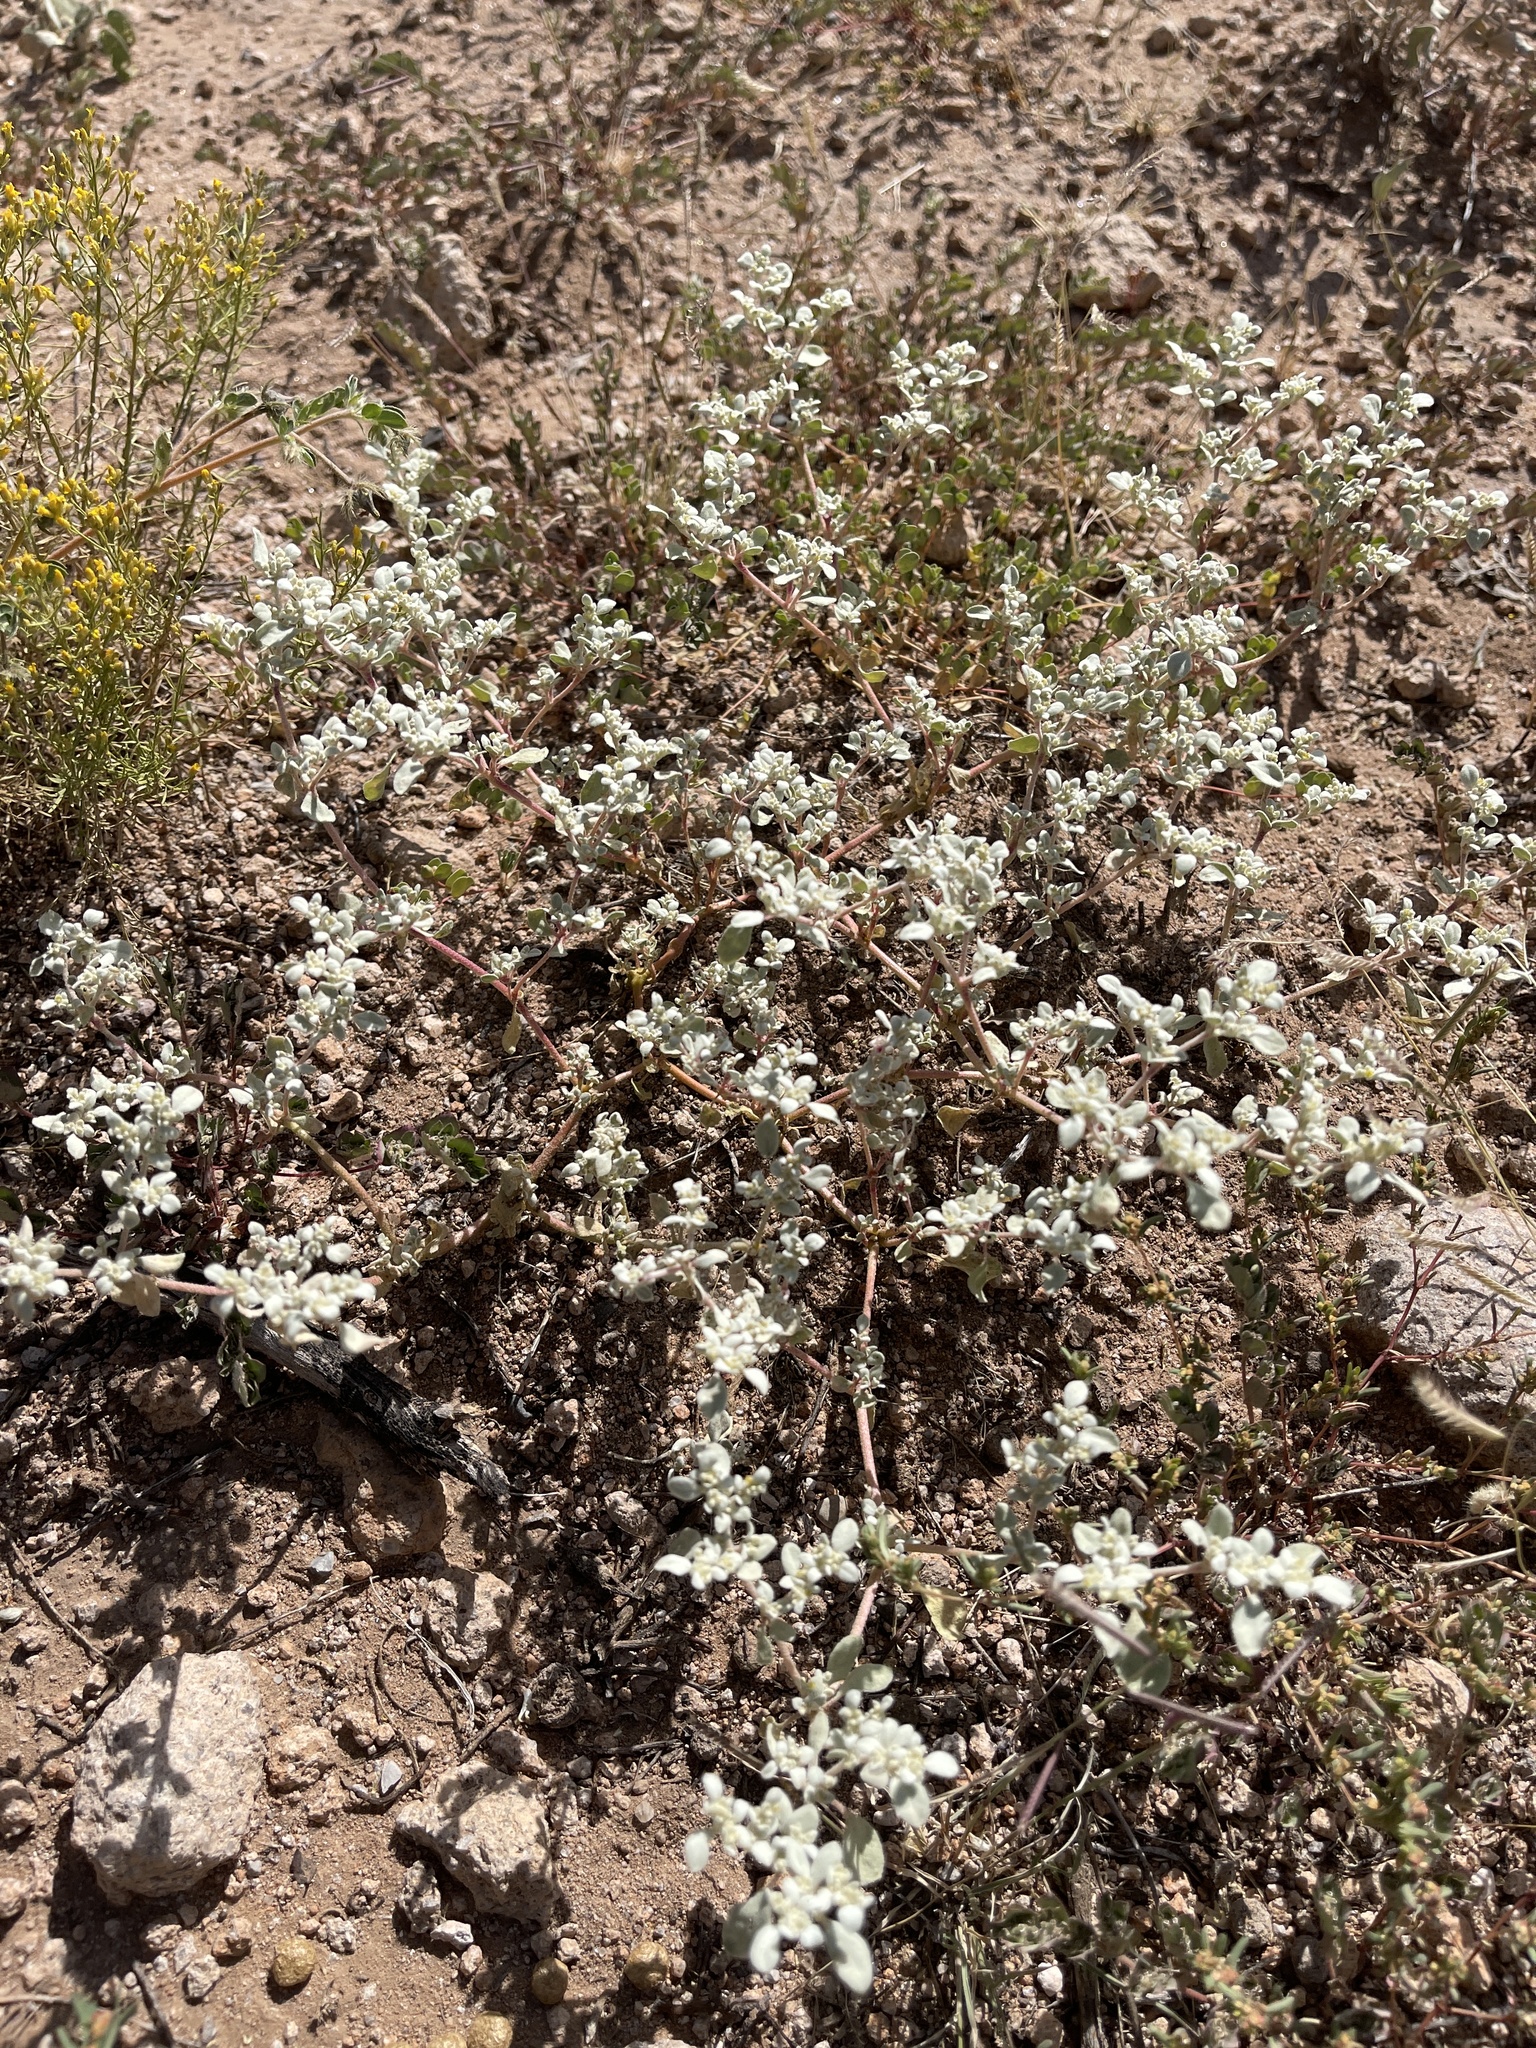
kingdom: Plantae
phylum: Tracheophyta
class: Magnoliopsida
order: Caryophyllales
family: Amaranthaceae
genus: Tidestromia
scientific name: Tidestromia lanuginosa
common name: Woolly tidestromia
